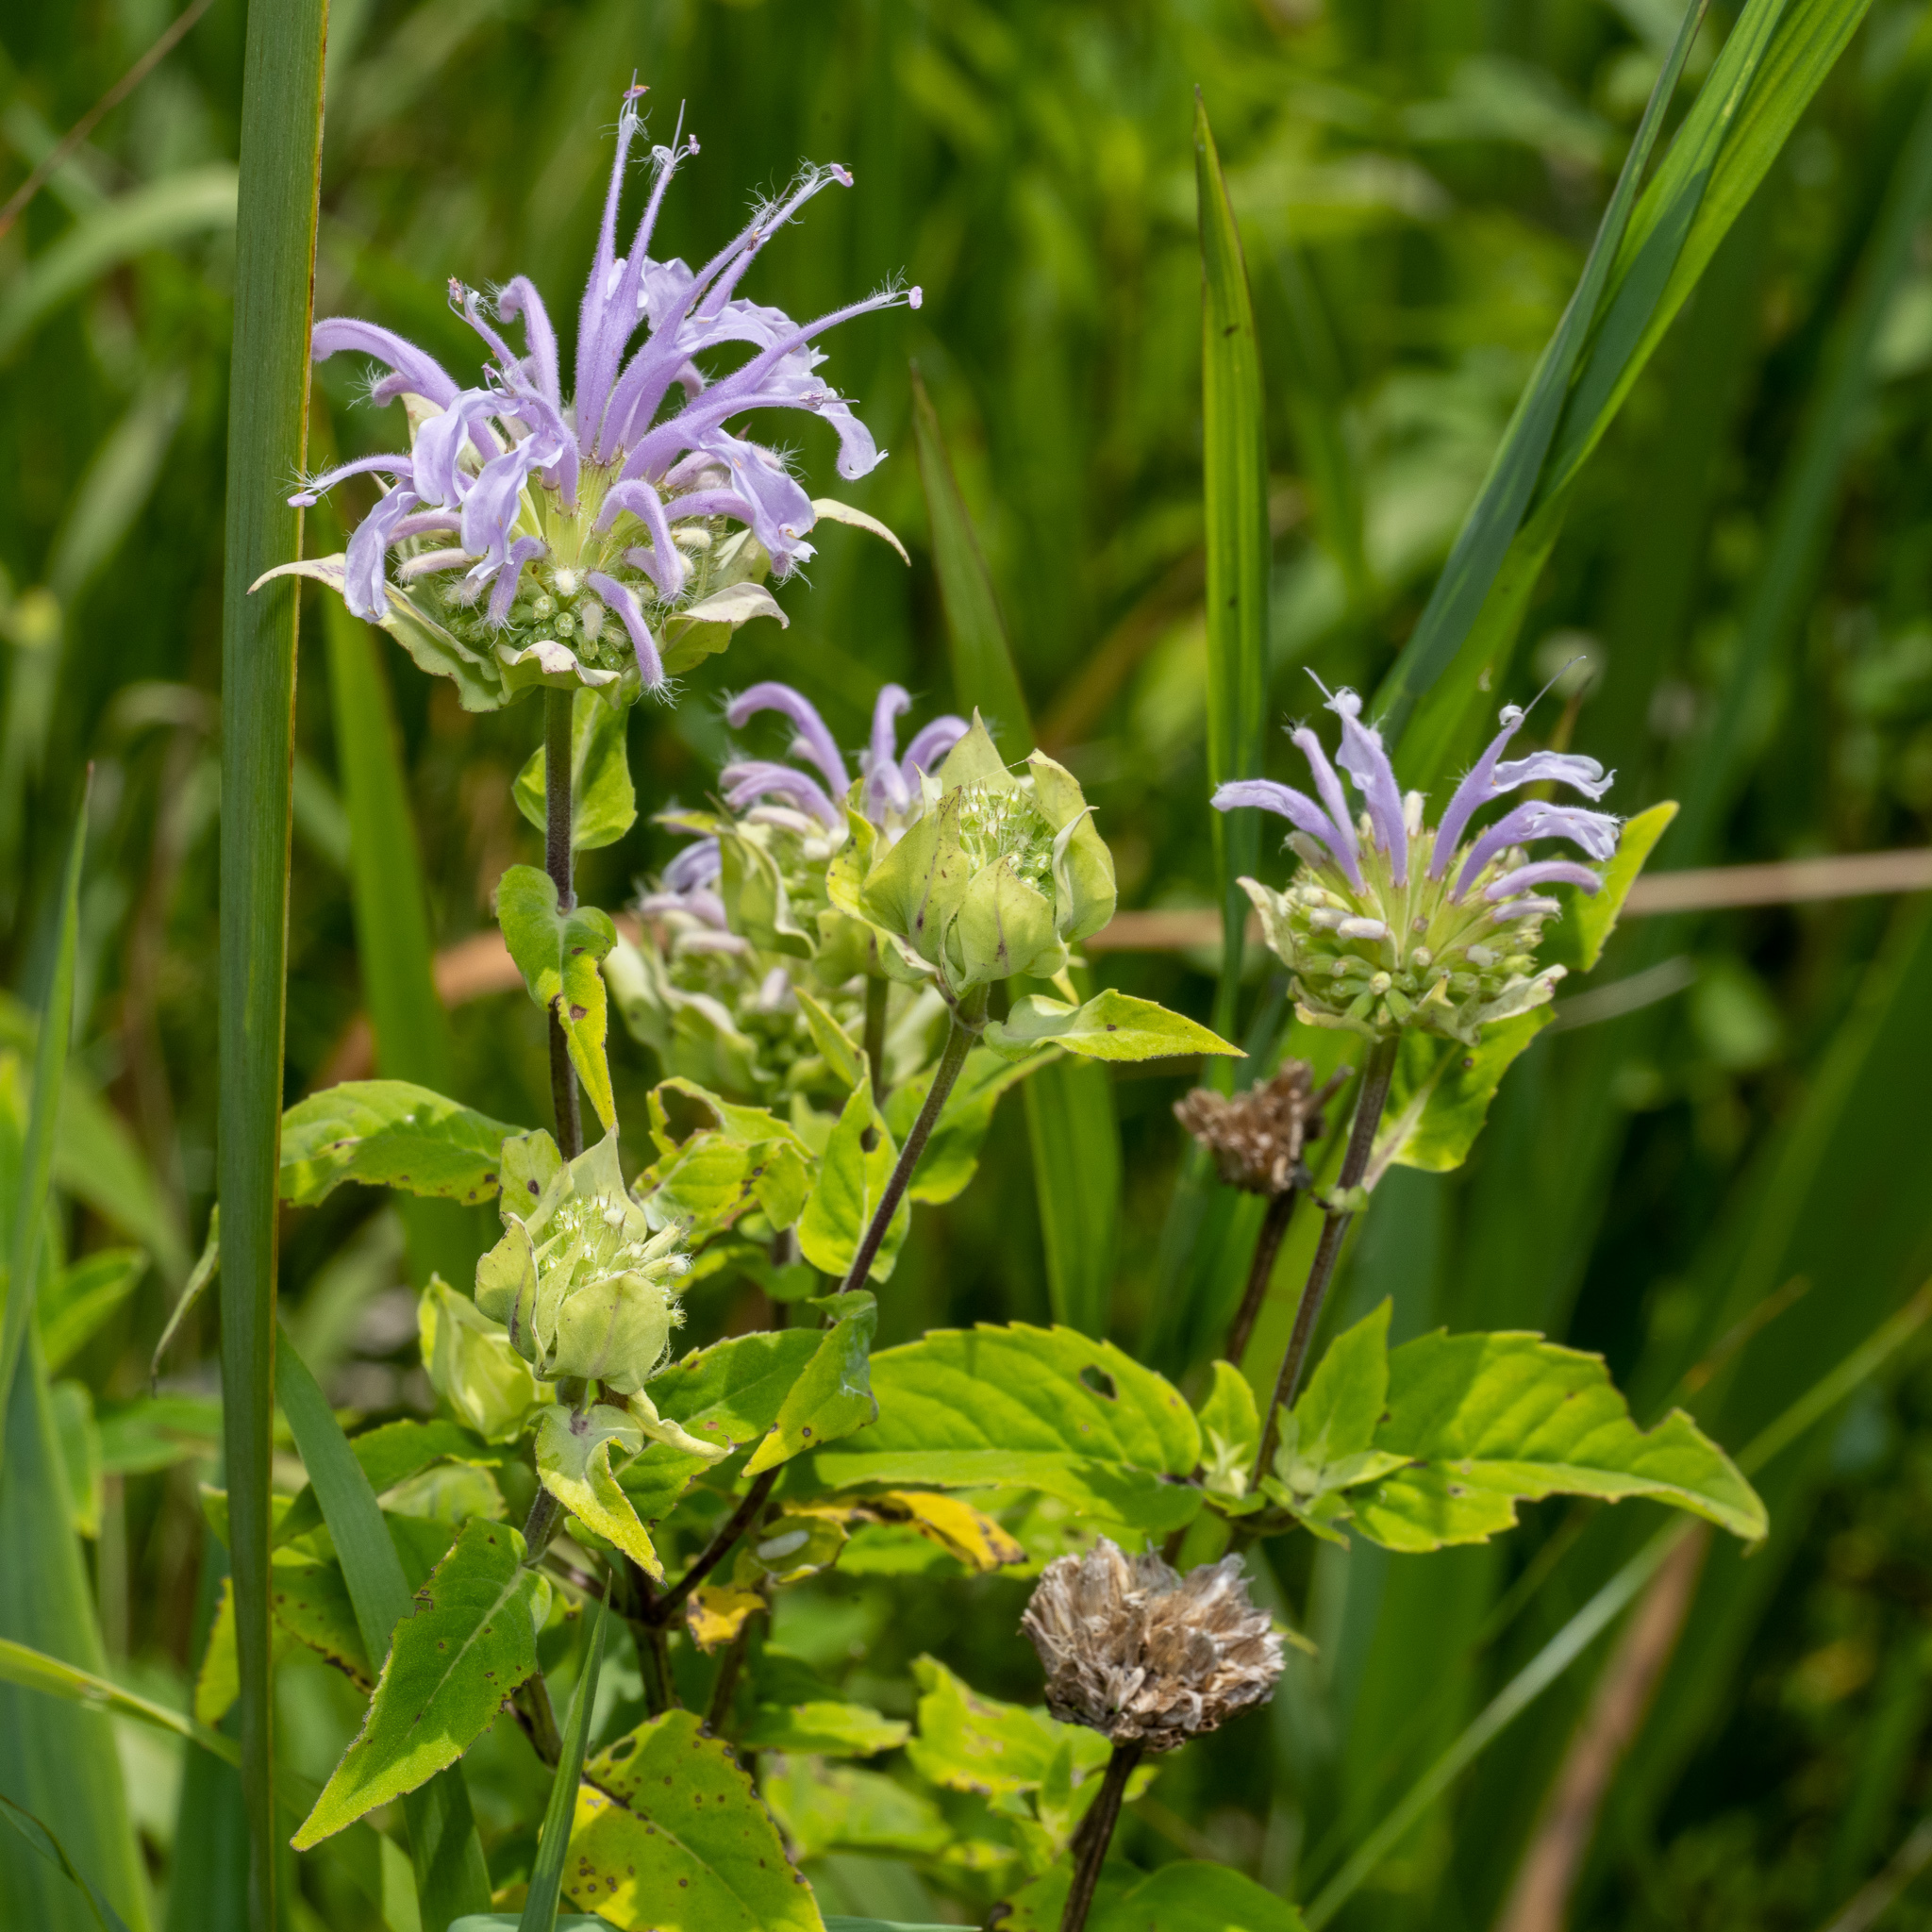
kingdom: Plantae
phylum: Tracheophyta
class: Magnoliopsida
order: Lamiales
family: Lamiaceae
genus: Monarda
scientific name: Monarda fistulosa
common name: Purple beebalm
